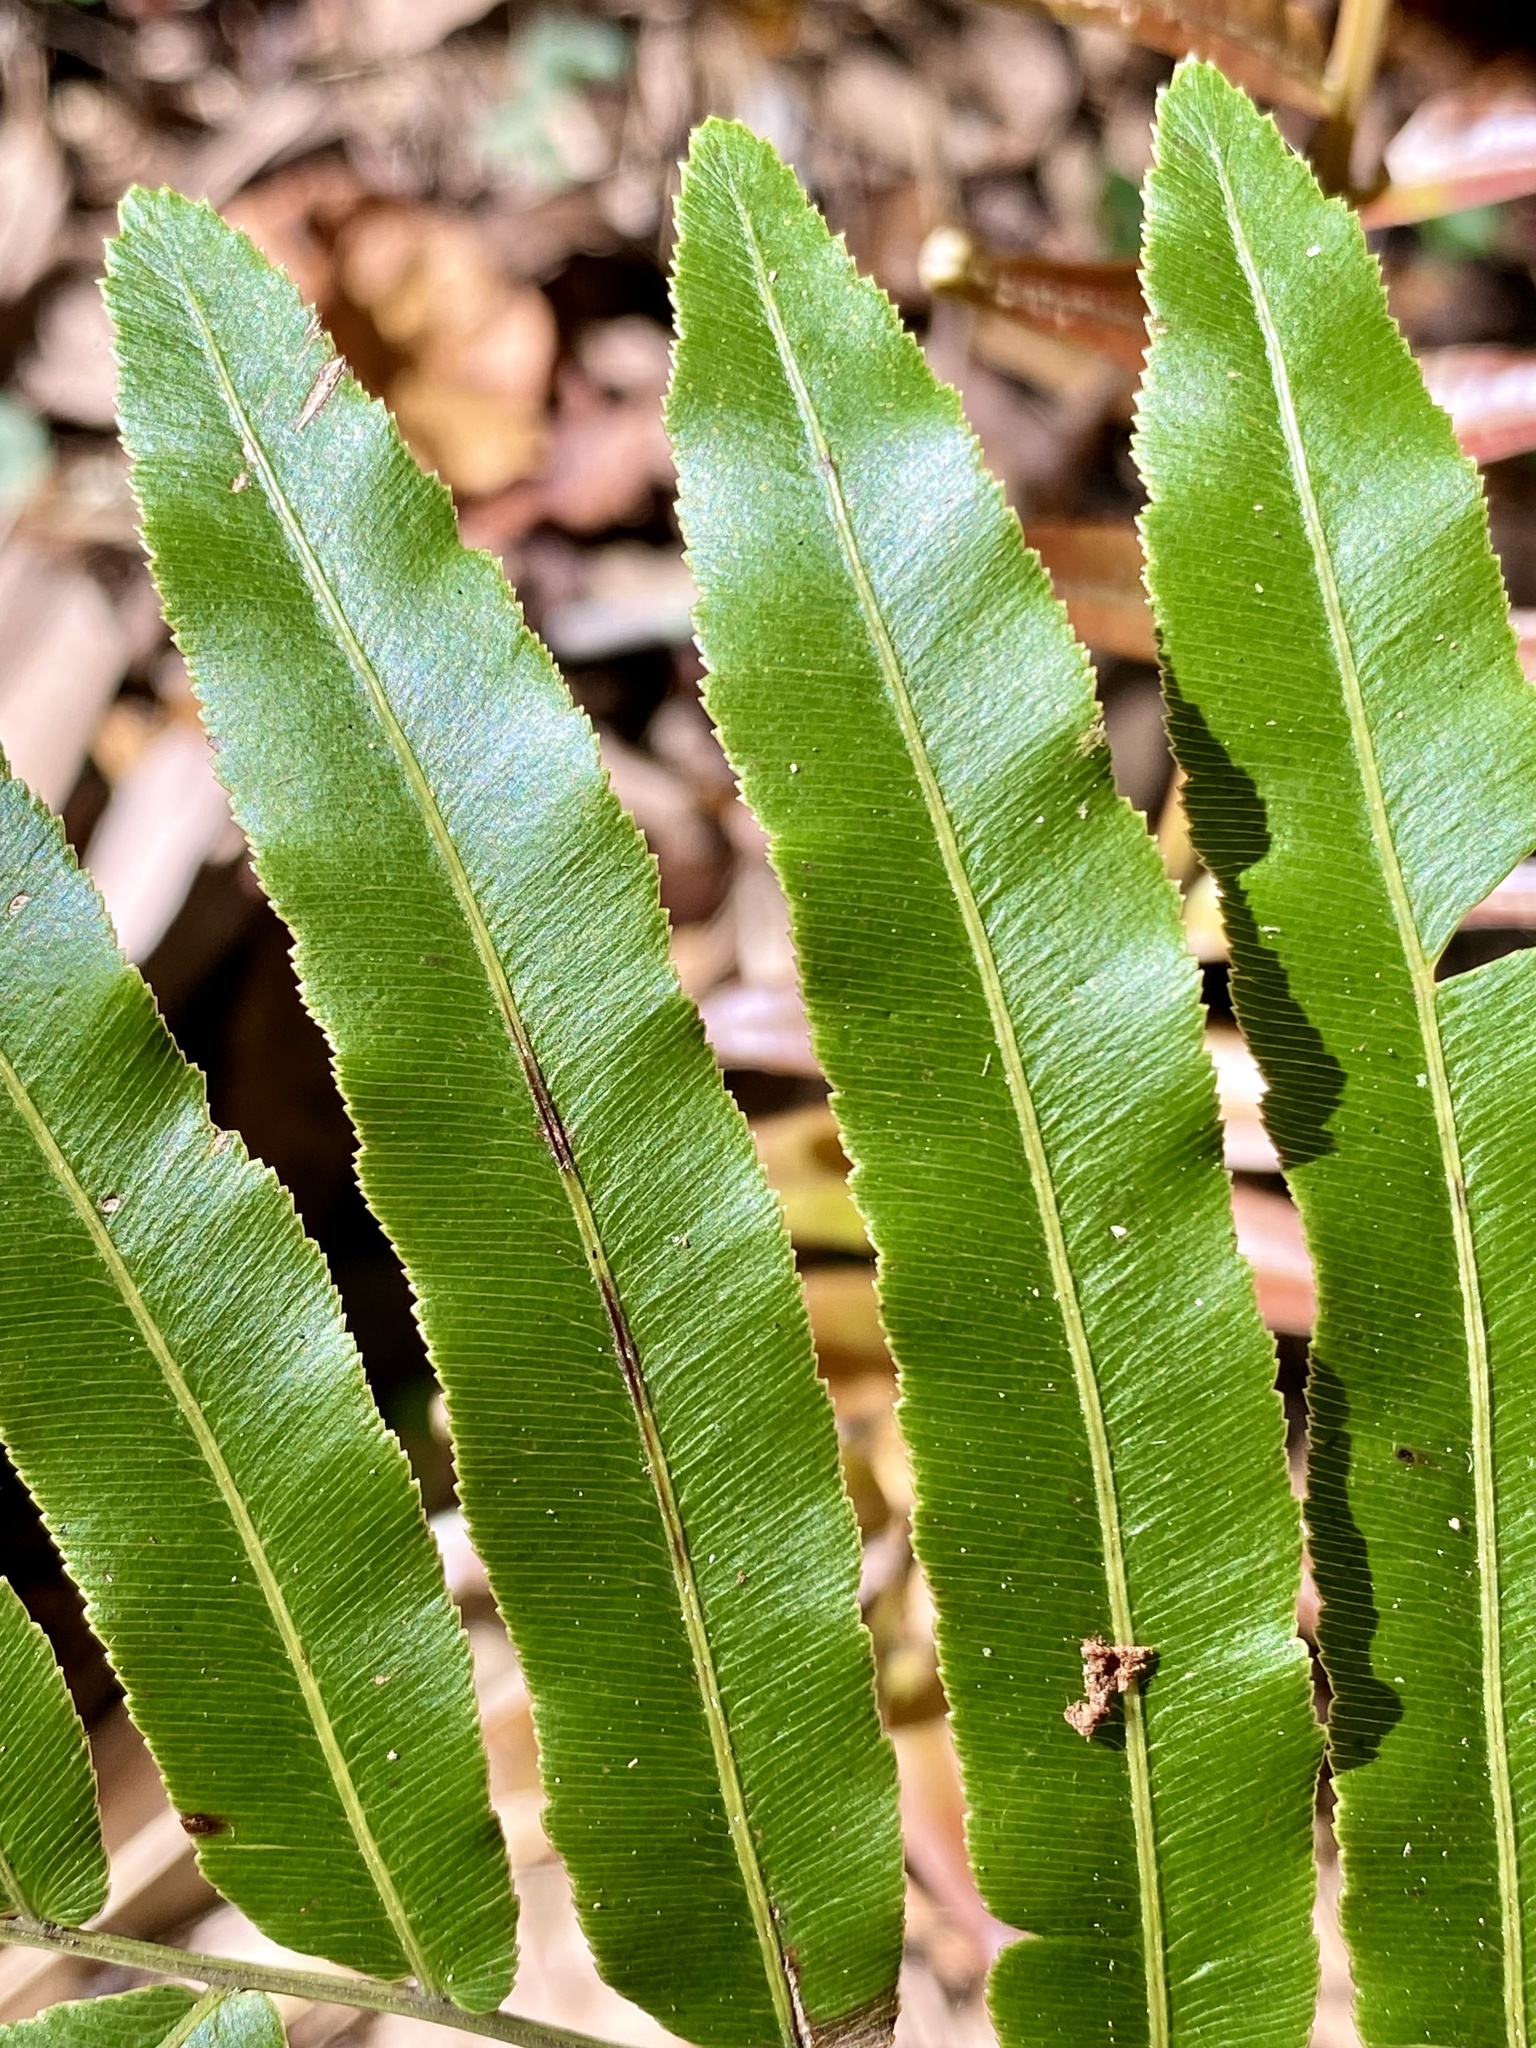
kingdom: Plantae
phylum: Tracheophyta
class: Polypodiopsida
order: Polypodiales
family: Blechnaceae
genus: Telmatoblechnum
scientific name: Telmatoblechnum serrulatum
